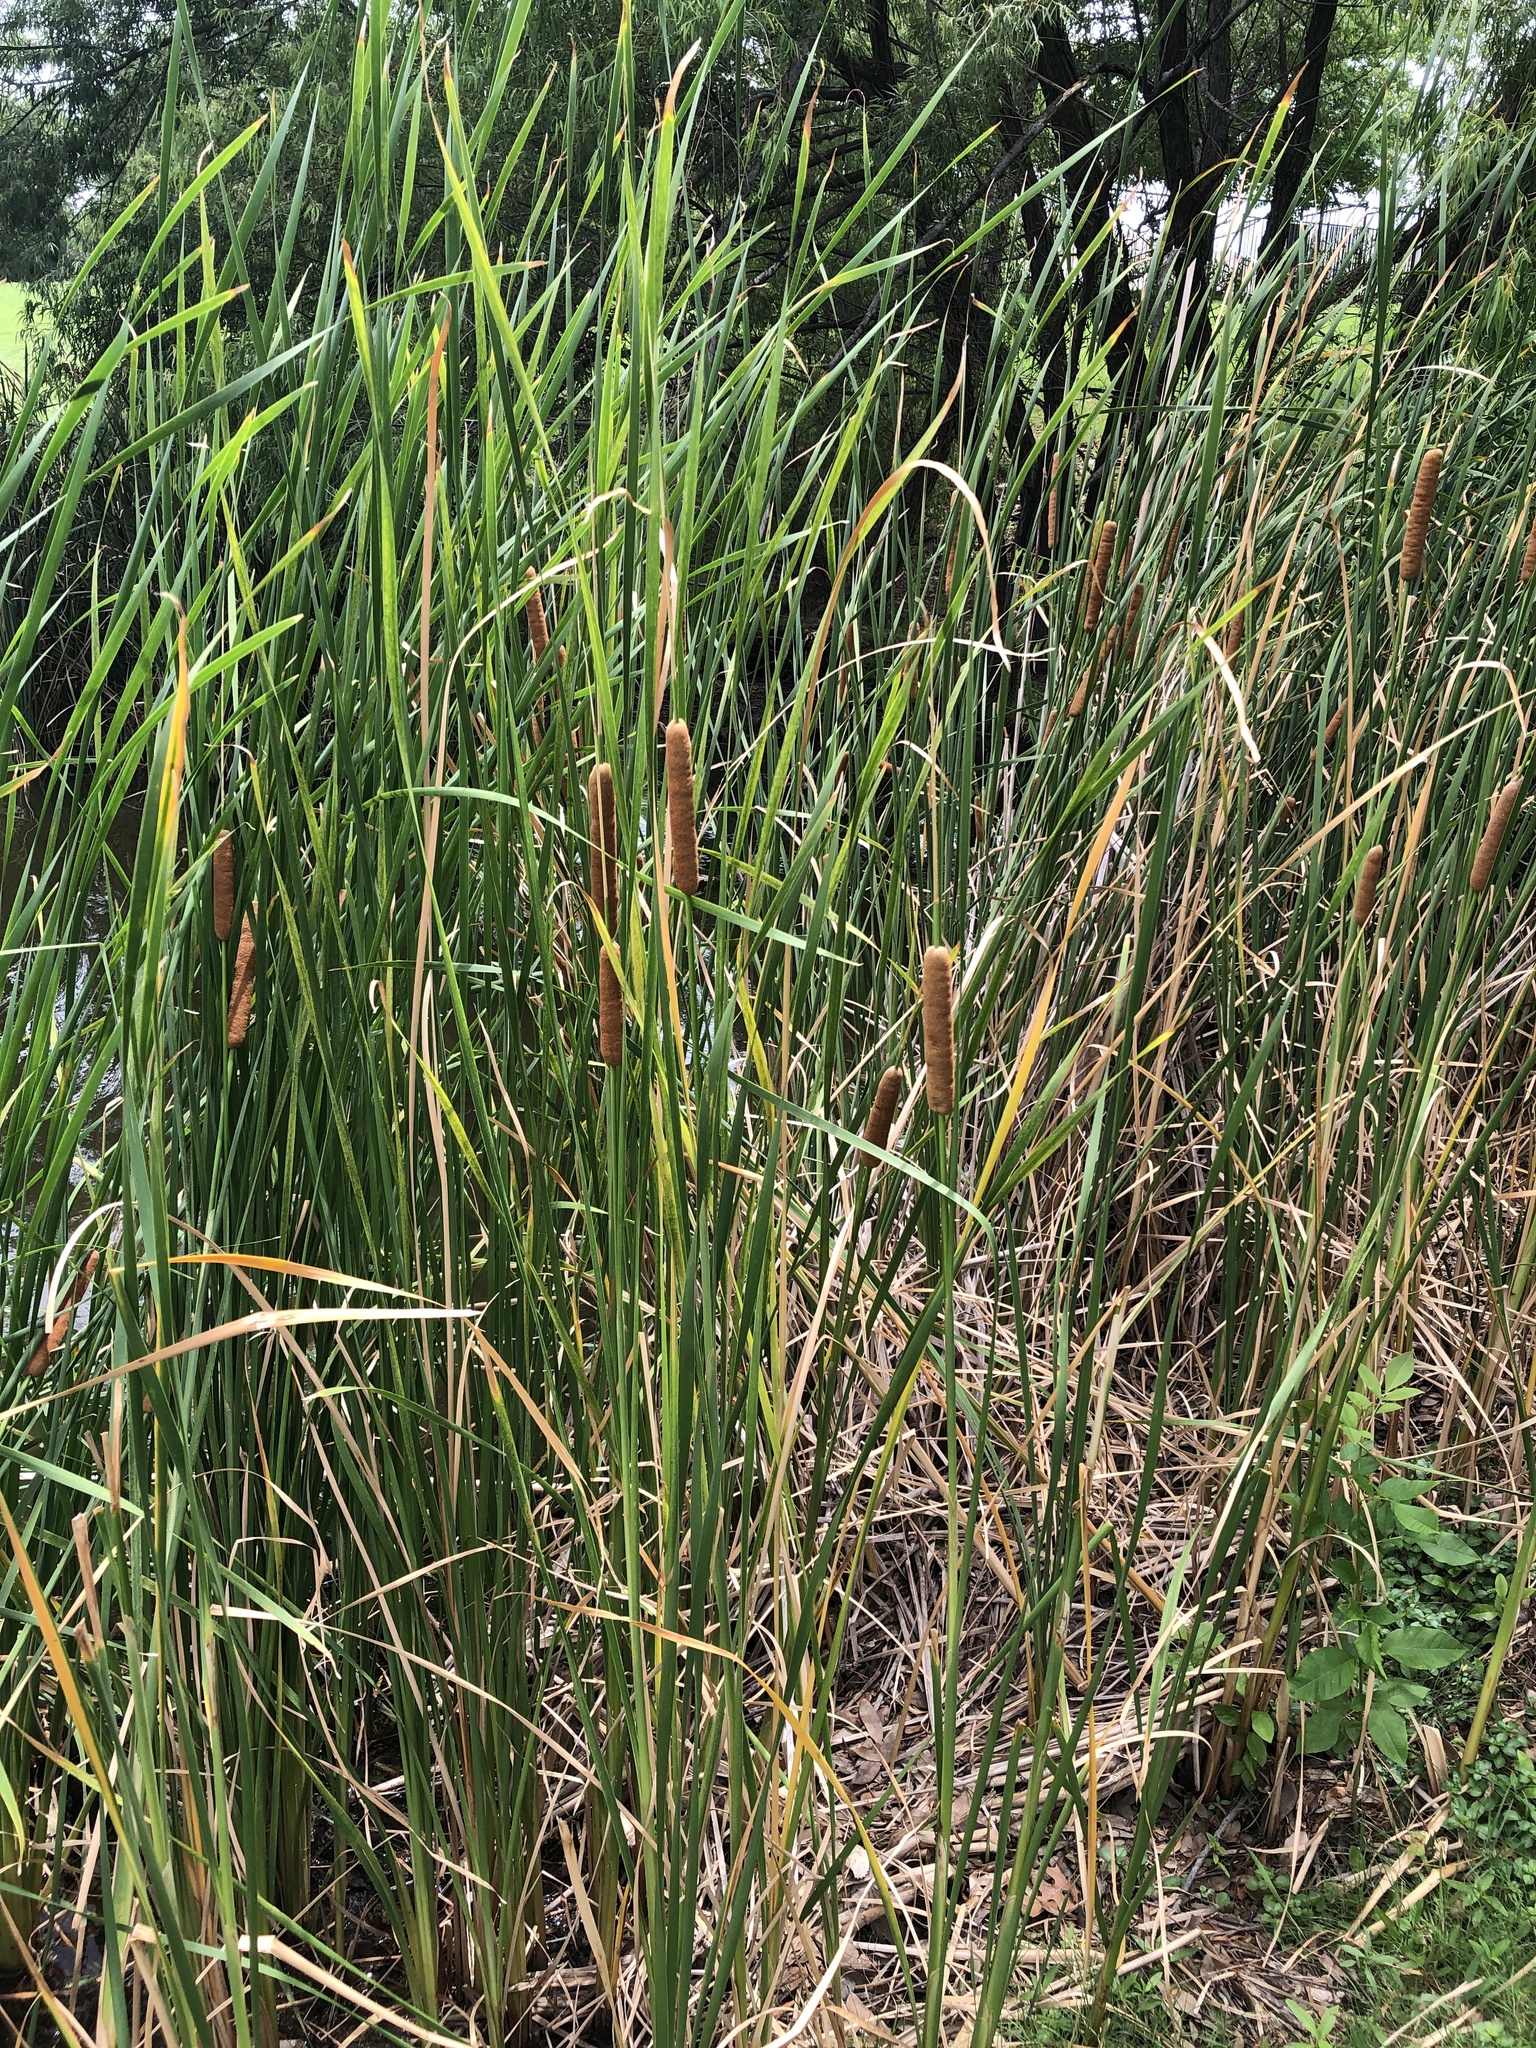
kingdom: Plantae
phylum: Tracheophyta
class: Liliopsida
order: Poales
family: Typhaceae
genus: Typha
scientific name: Typha domingensis
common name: Southern cattail
